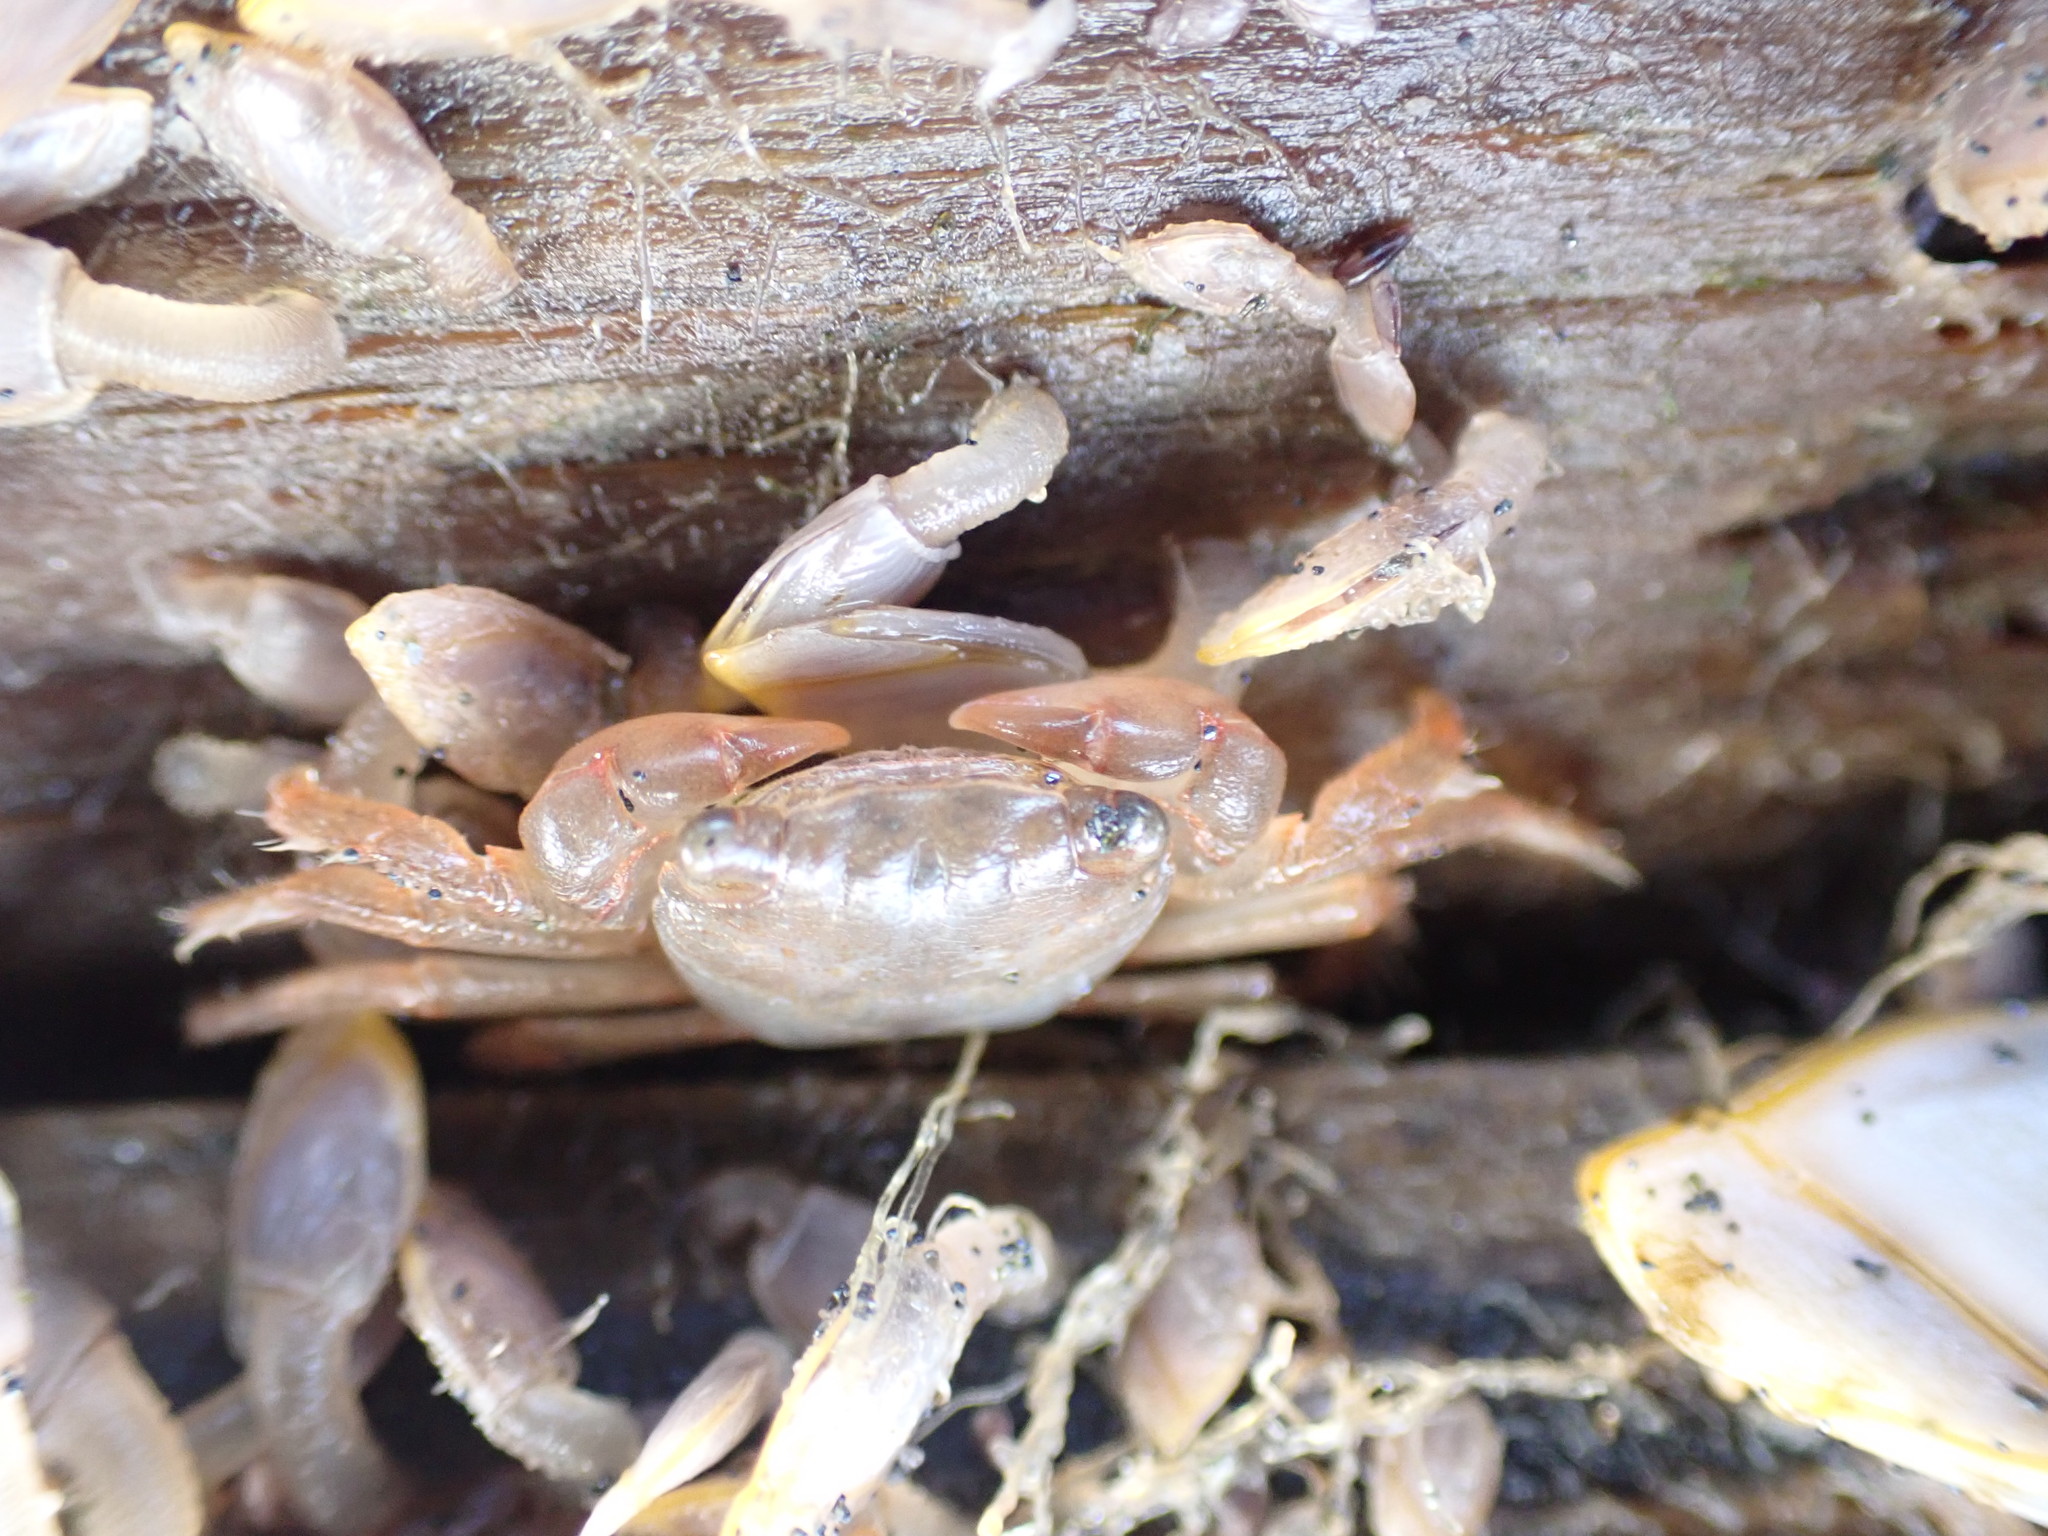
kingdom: Animalia
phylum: Arthropoda
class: Malacostraca
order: Decapoda
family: Grapsidae
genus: Planes
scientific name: Planes minutus
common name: Gulf weed crab
